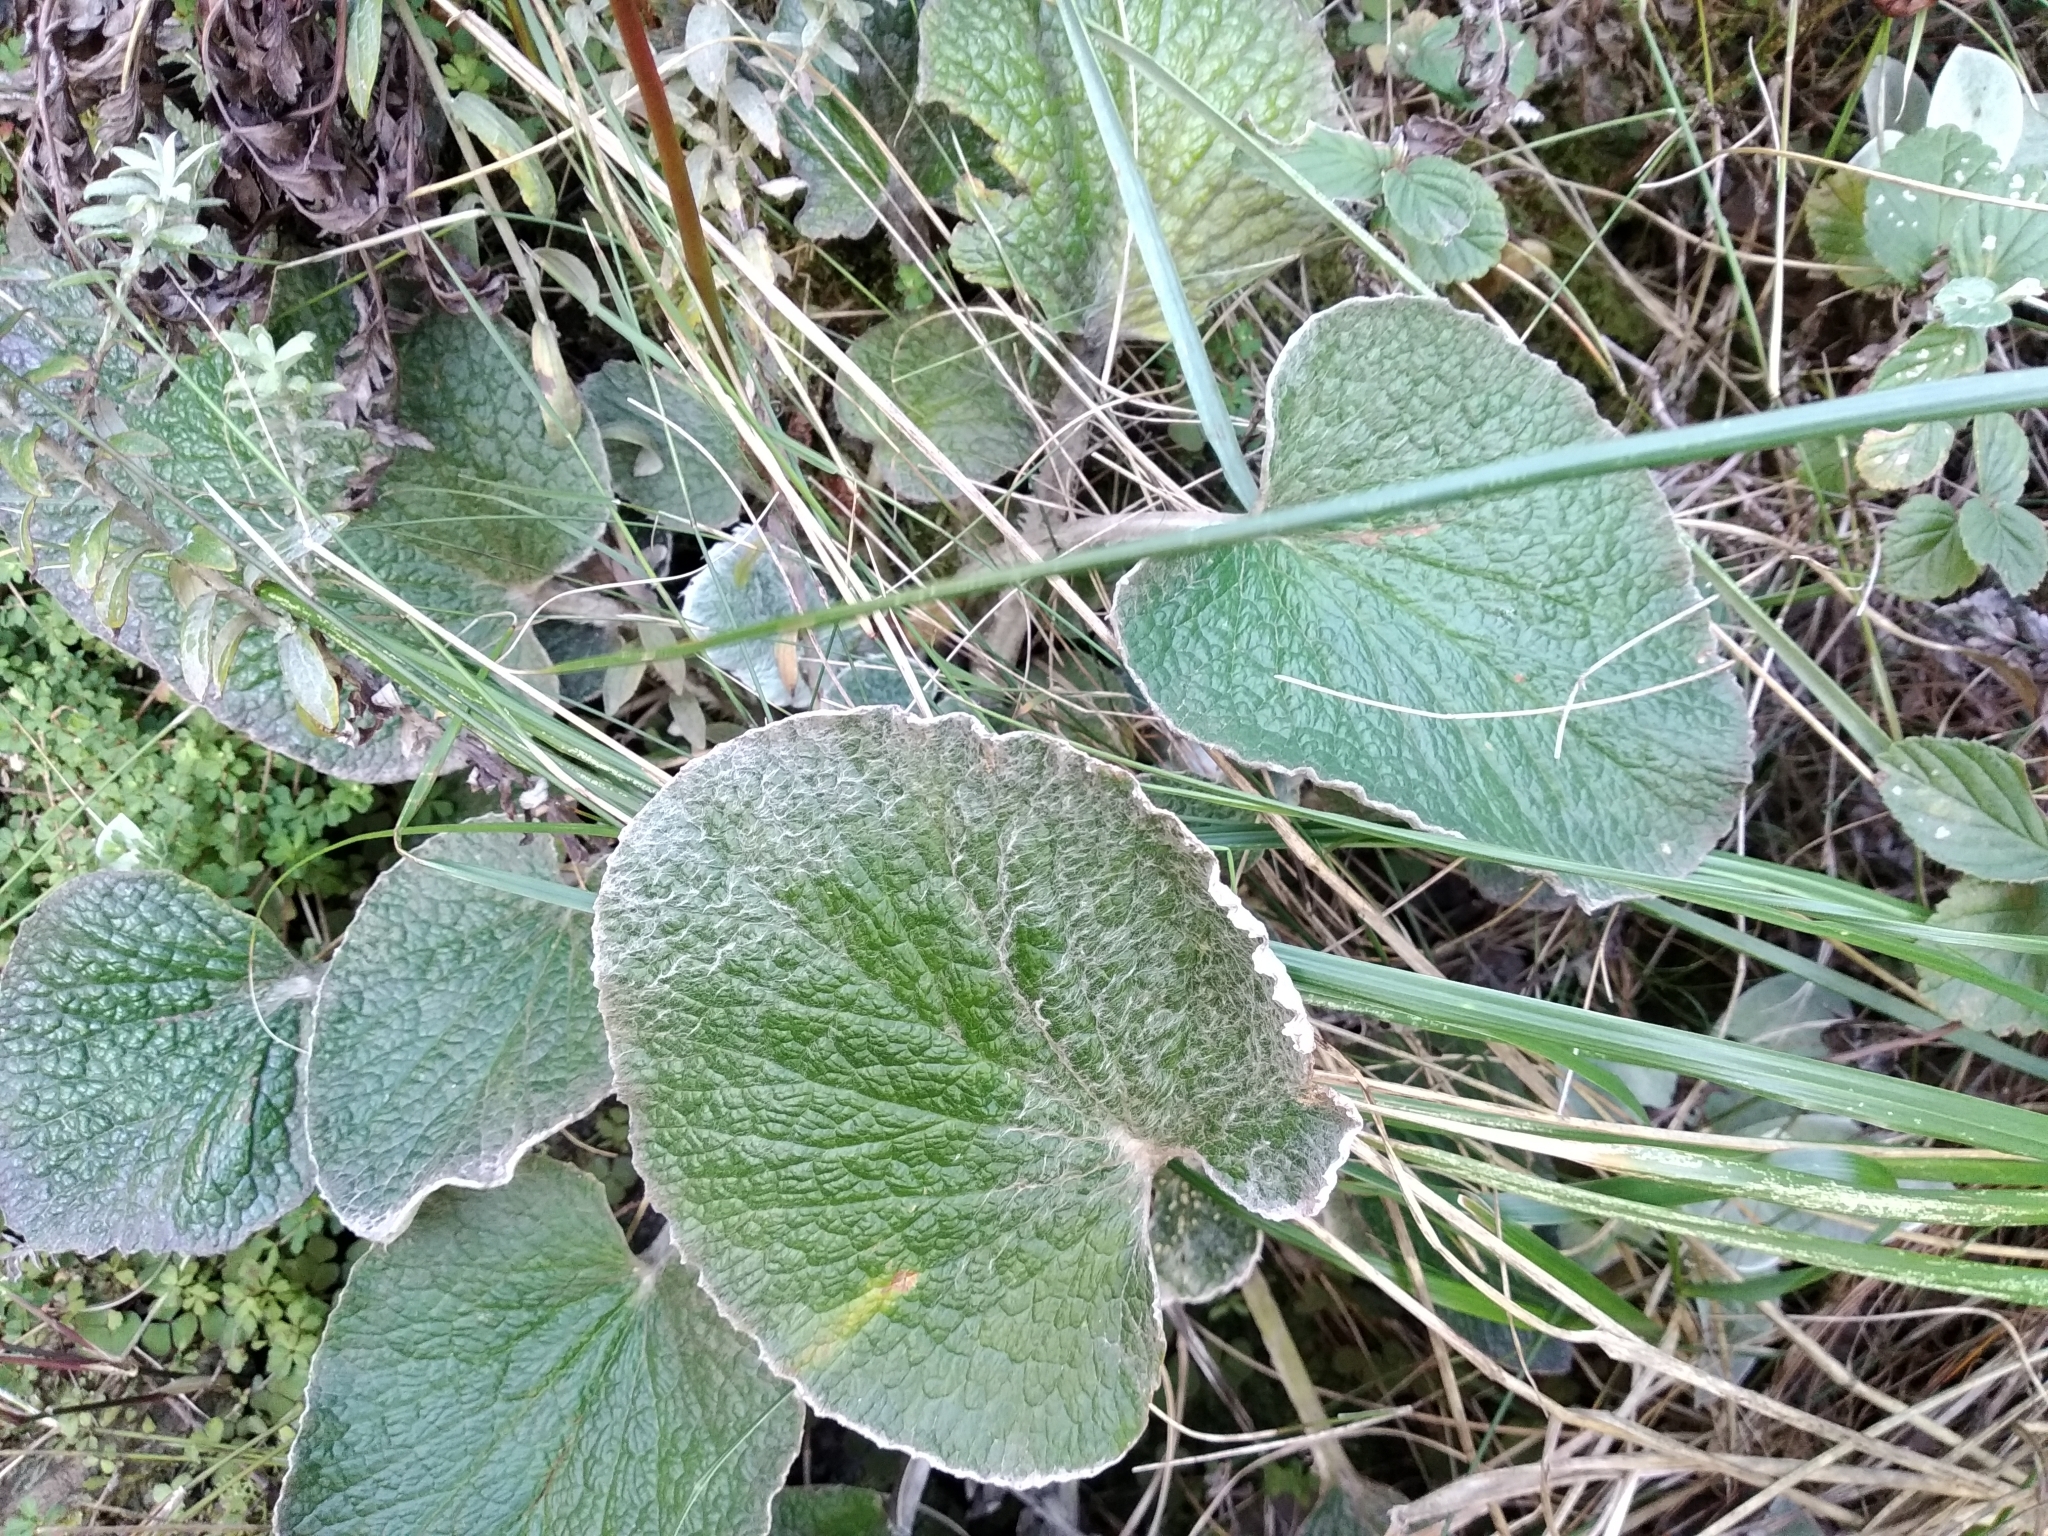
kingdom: Plantae
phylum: Tracheophyta
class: Magnoliopsida
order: Apiales
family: Apiaceae
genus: Hermas
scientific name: Hermas lanata
